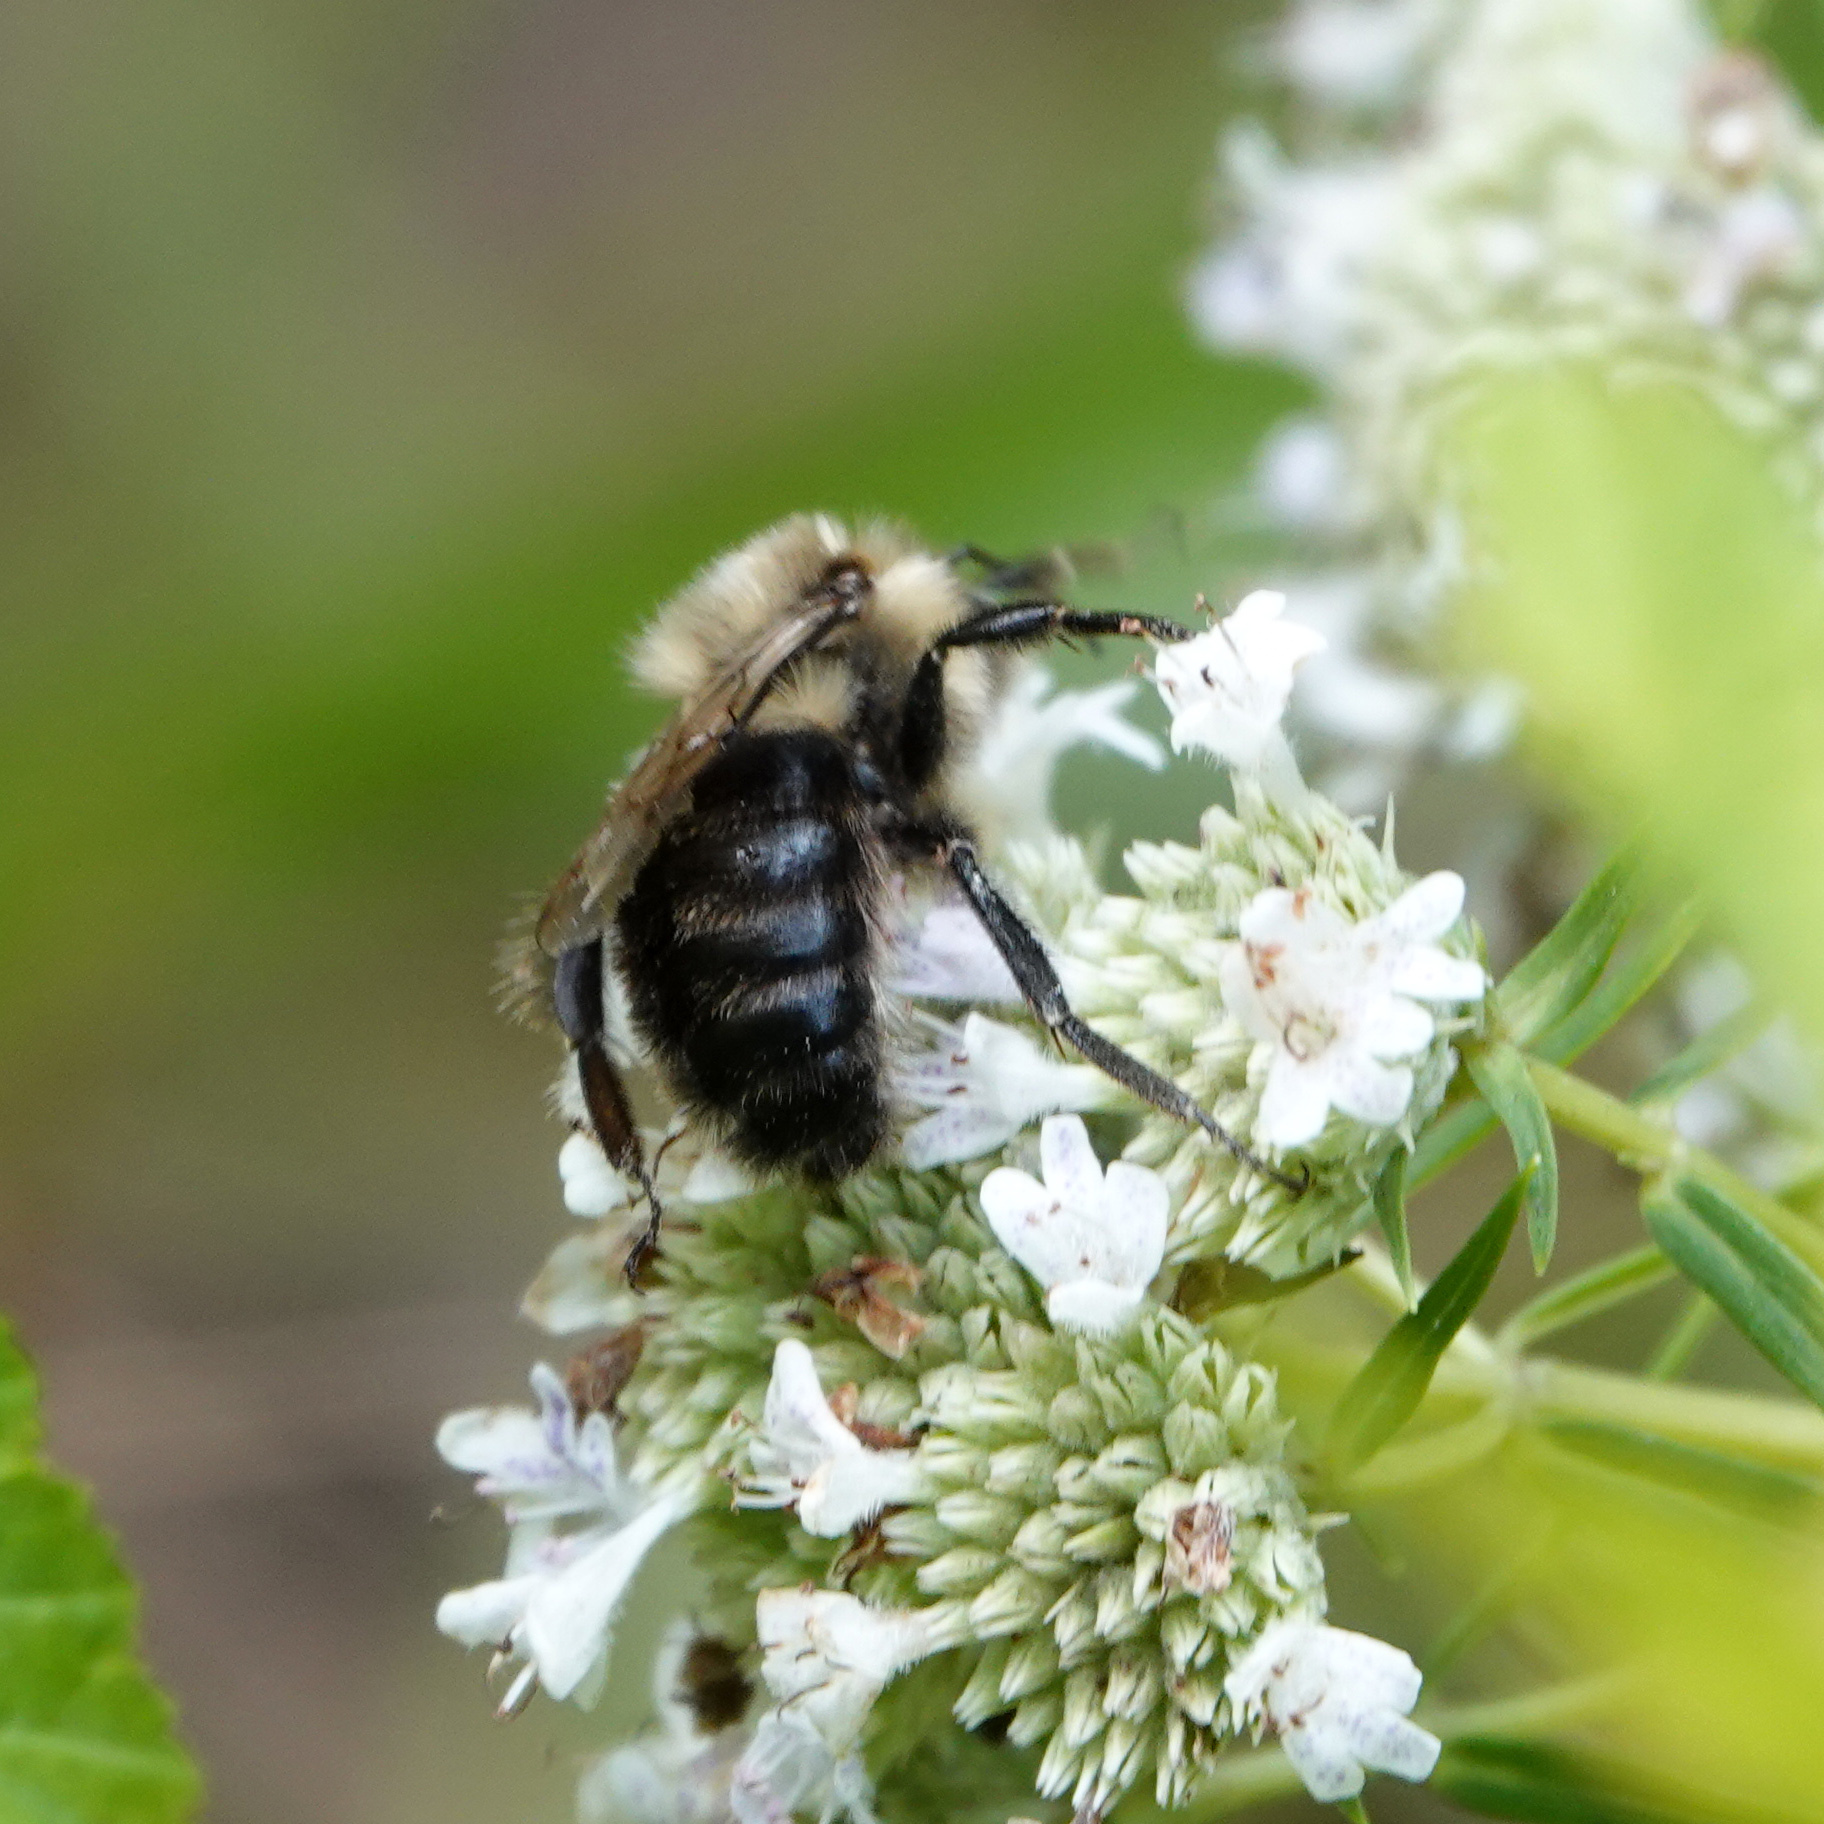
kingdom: Animalia
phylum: Arthropoda
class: Insecta
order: Hymenoptera
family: Apidae
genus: Bombus
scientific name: Bombus impatiens
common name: Common eastern bumble bee
